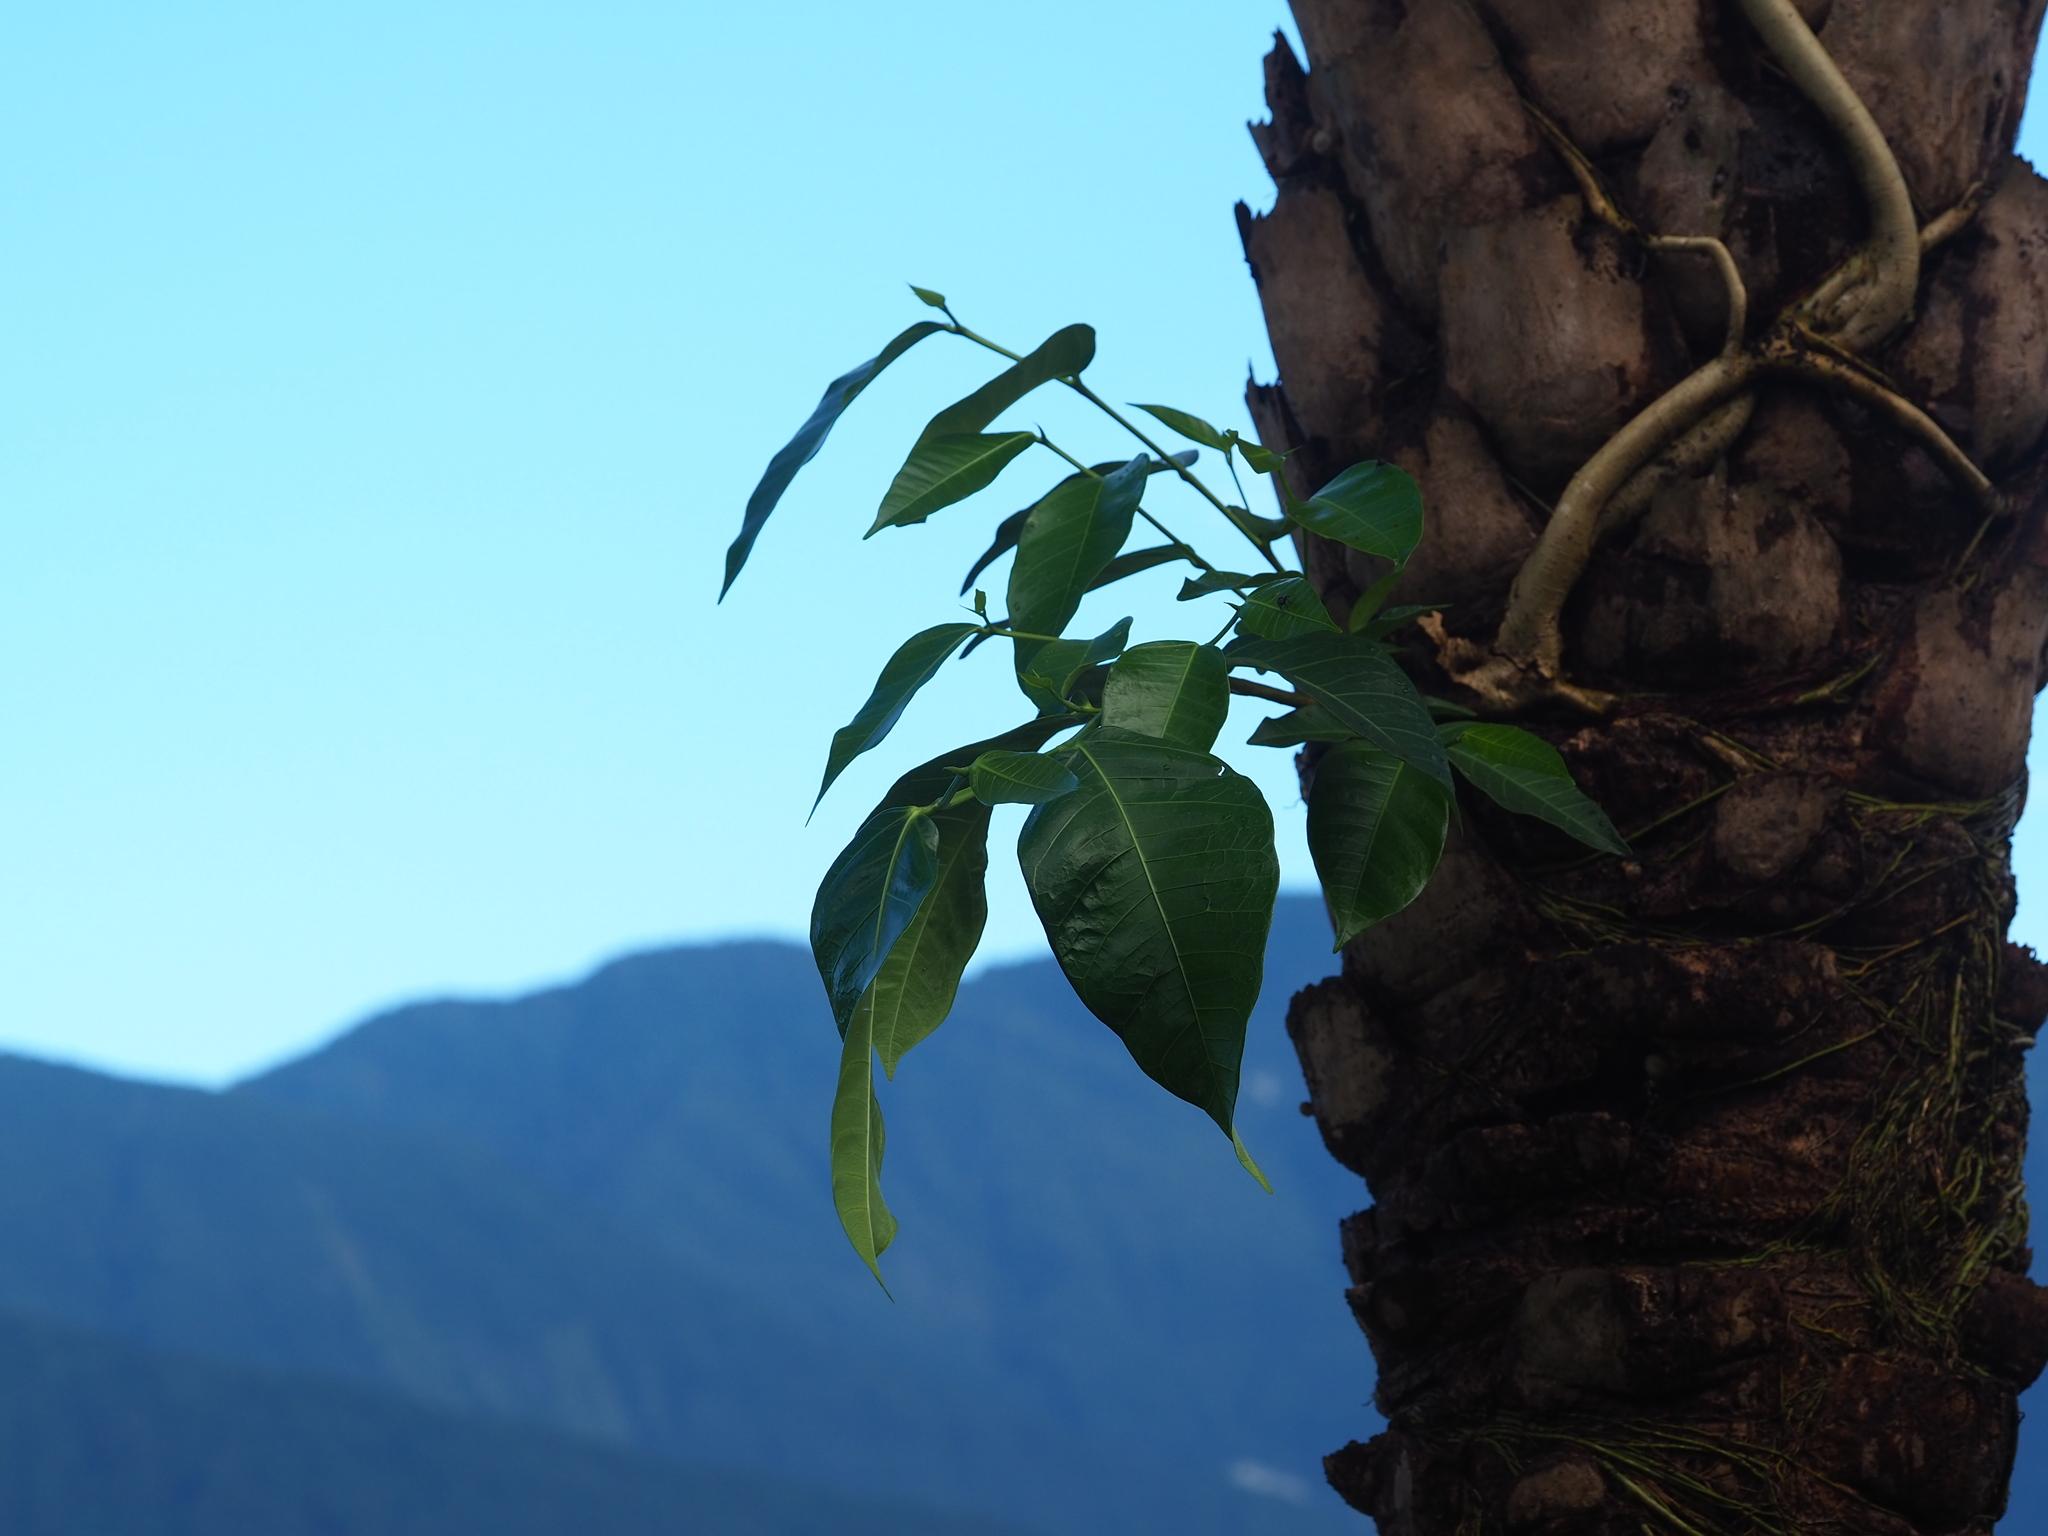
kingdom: Plantae
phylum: Tracheophyta
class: Magnoliopsida
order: Rosales
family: Moraceae
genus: Ficus
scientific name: Ficus virgata
